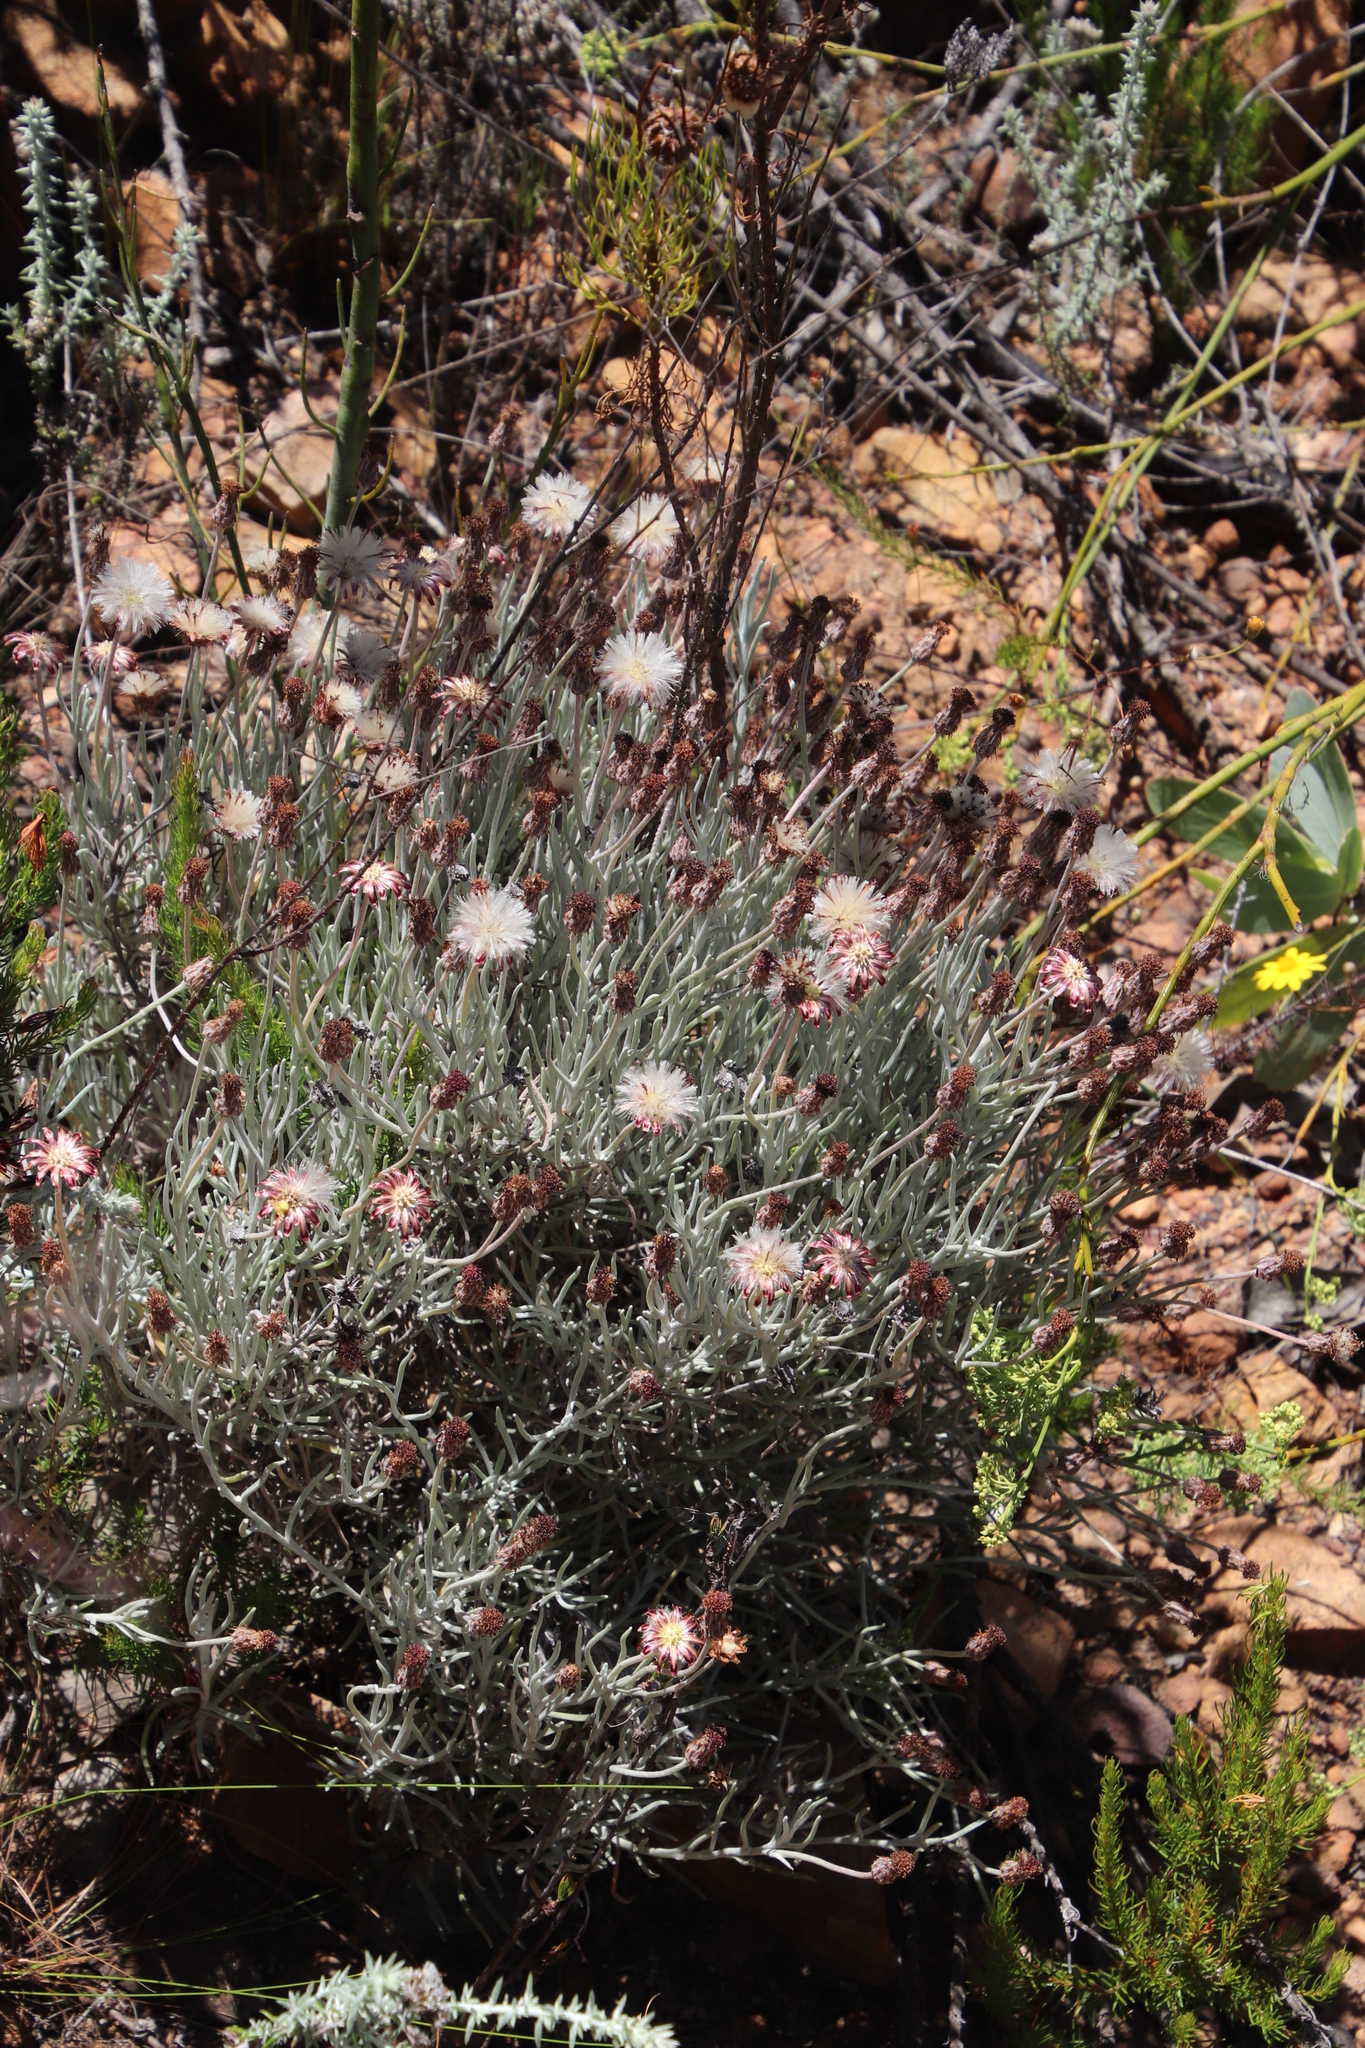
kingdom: Plantae
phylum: Tracheophyta
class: Magnoliopsida
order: Asterales
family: Asteraceae
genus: Syncarpha
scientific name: Syncarpha gnaphaloides
